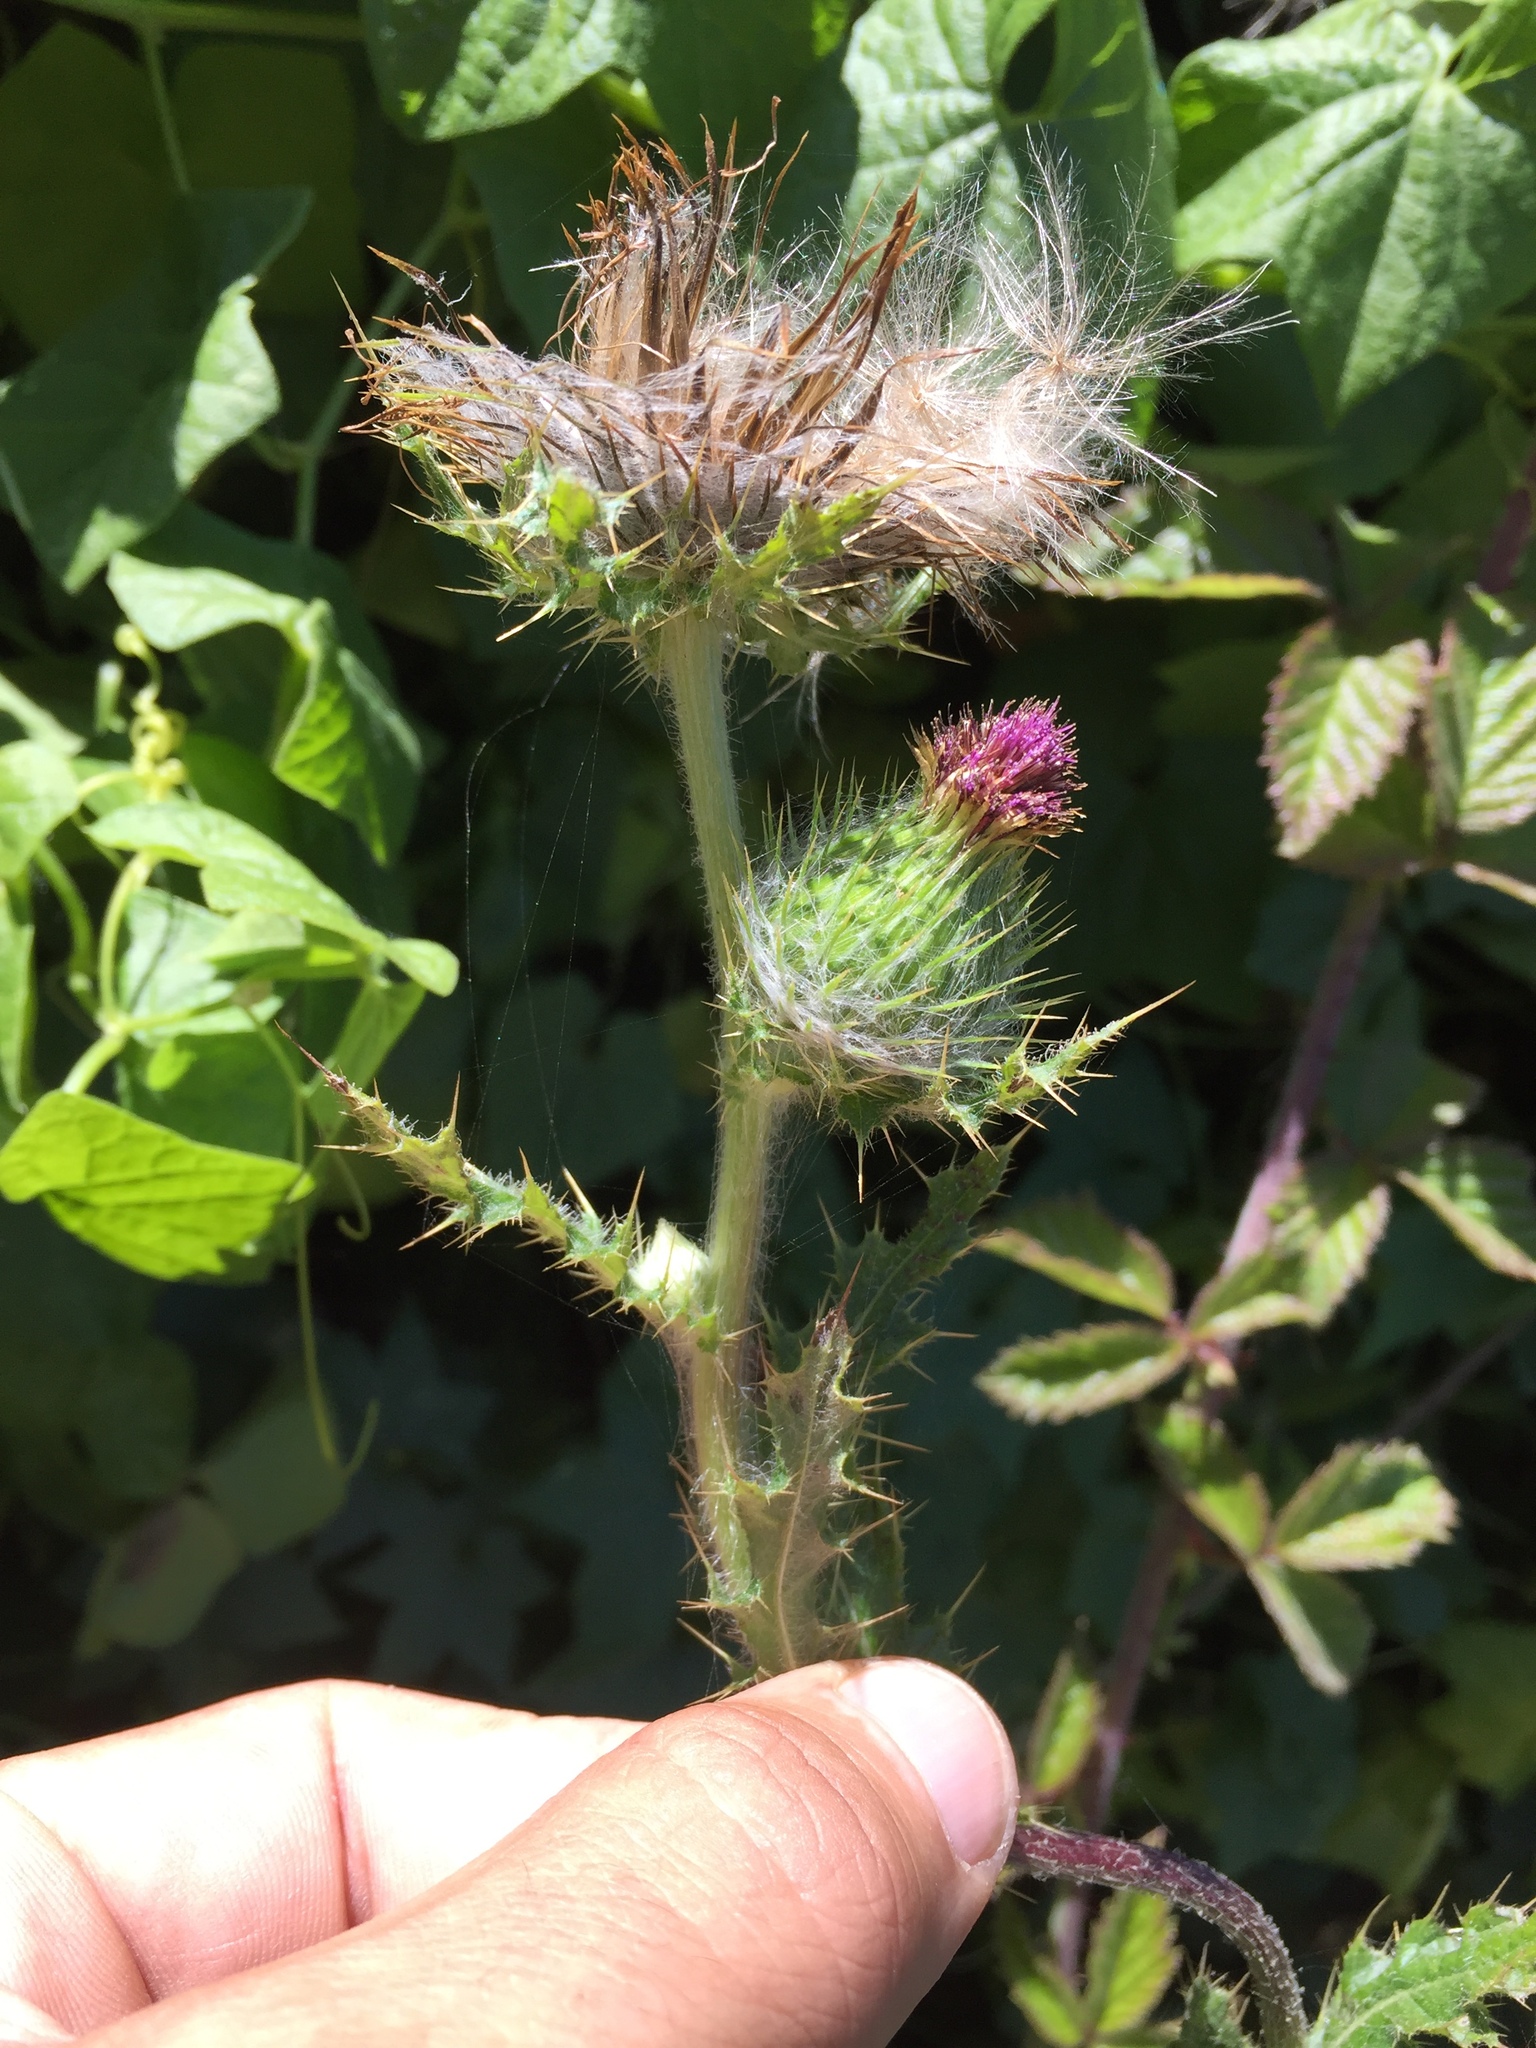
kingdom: Plantae
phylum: Tracheophyta
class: Magnoliopsida
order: Asterales
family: Asteraceae
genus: Cirsium
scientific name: Cirsium brevistylum
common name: Indian thistle
